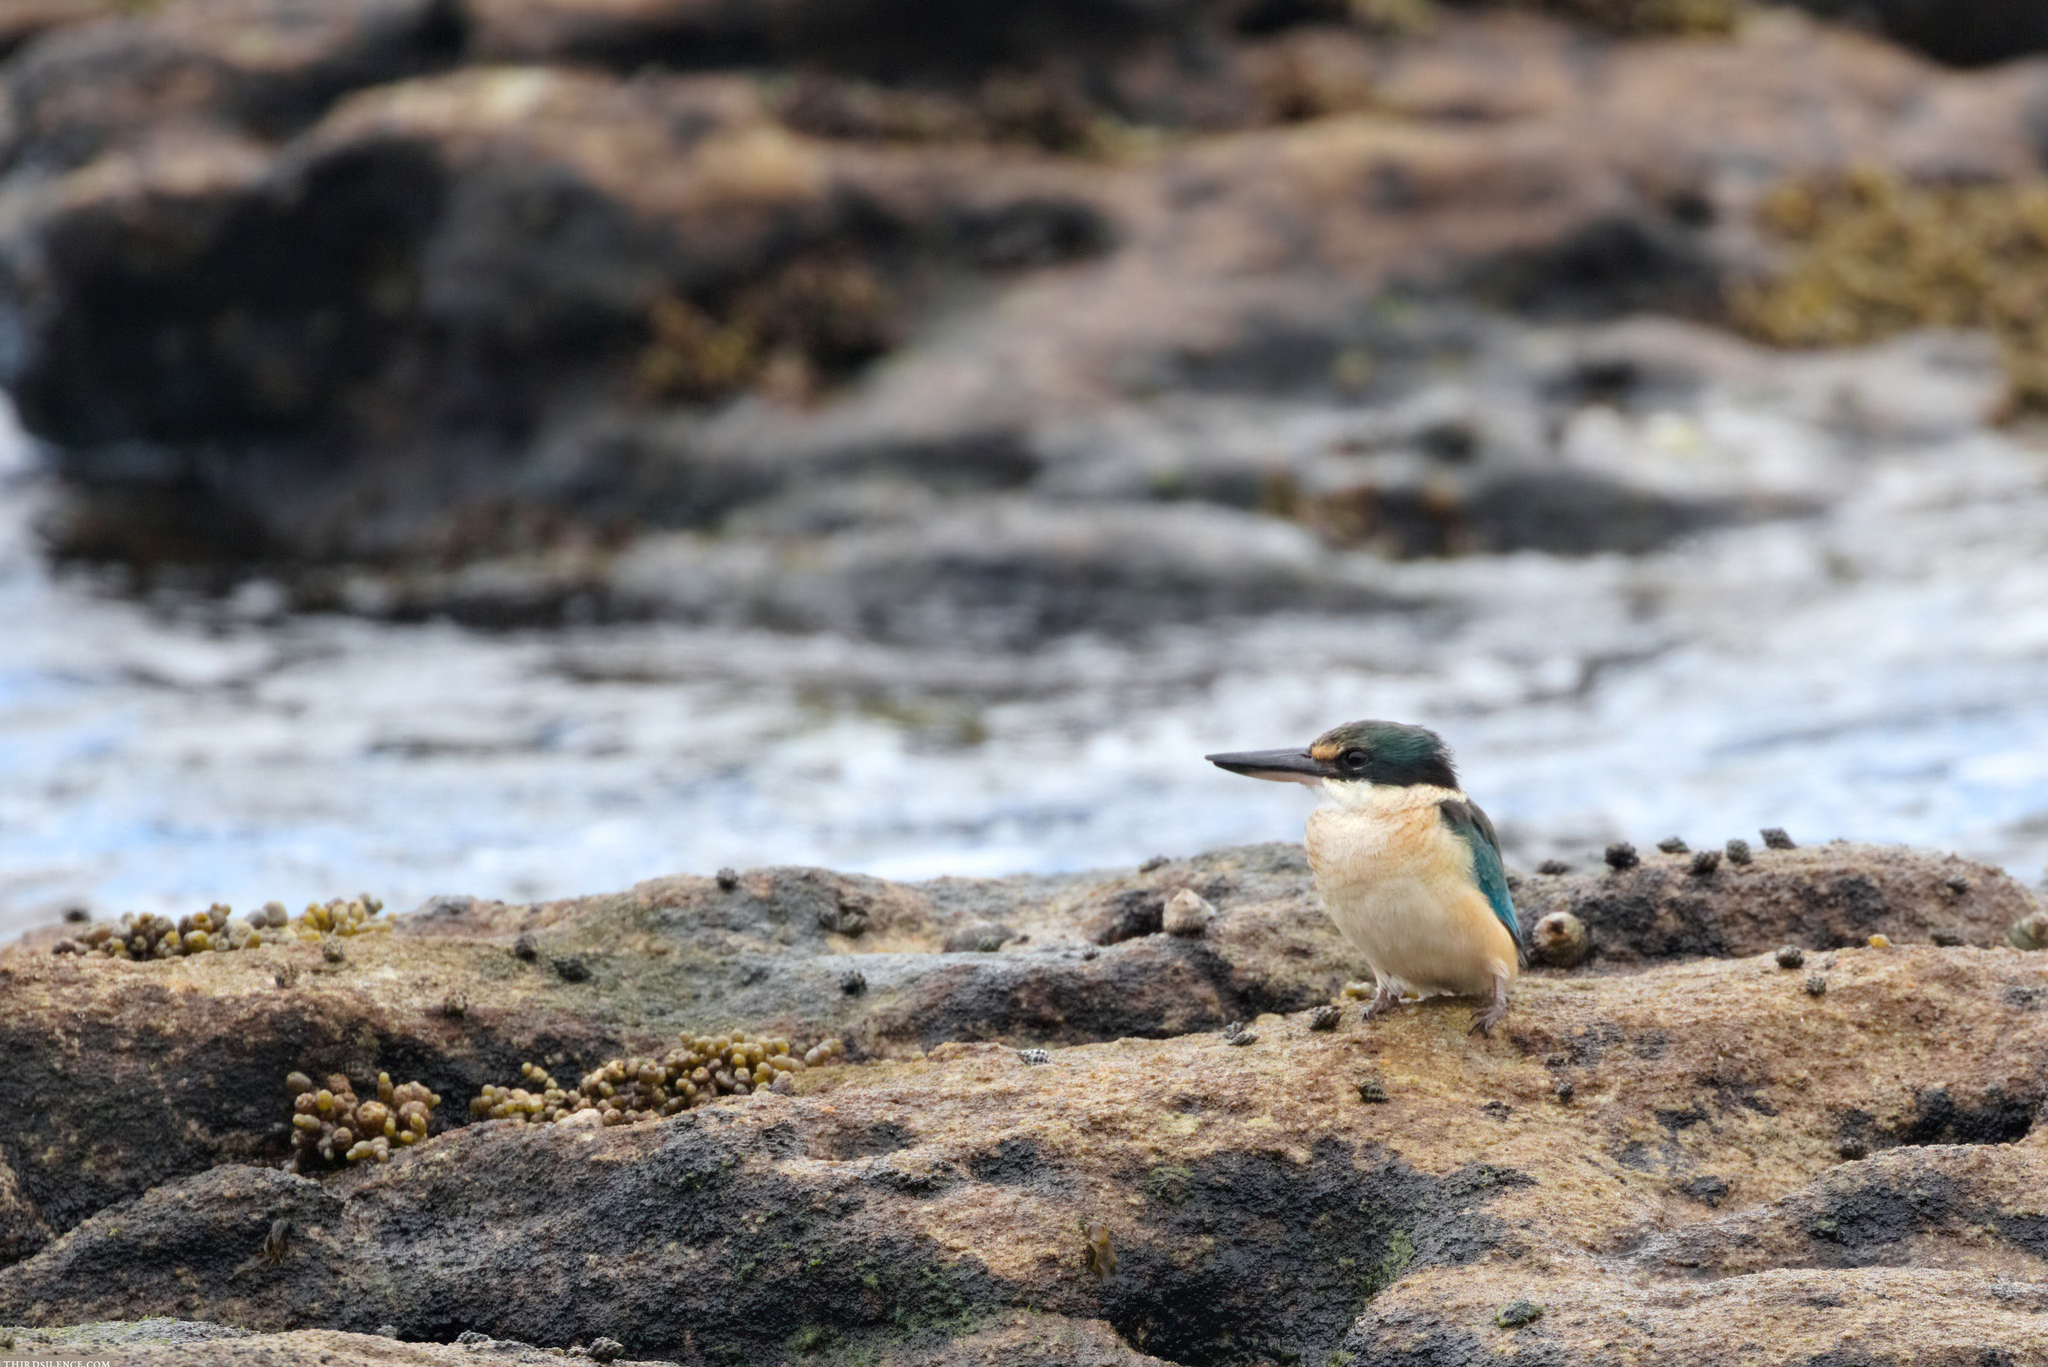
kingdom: Animalia
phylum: Chordata
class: Aves
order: Coraciiformes
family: Alcedinidae
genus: Todiramphus
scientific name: Todiramphus sanctus
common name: Sacred kingfisher
